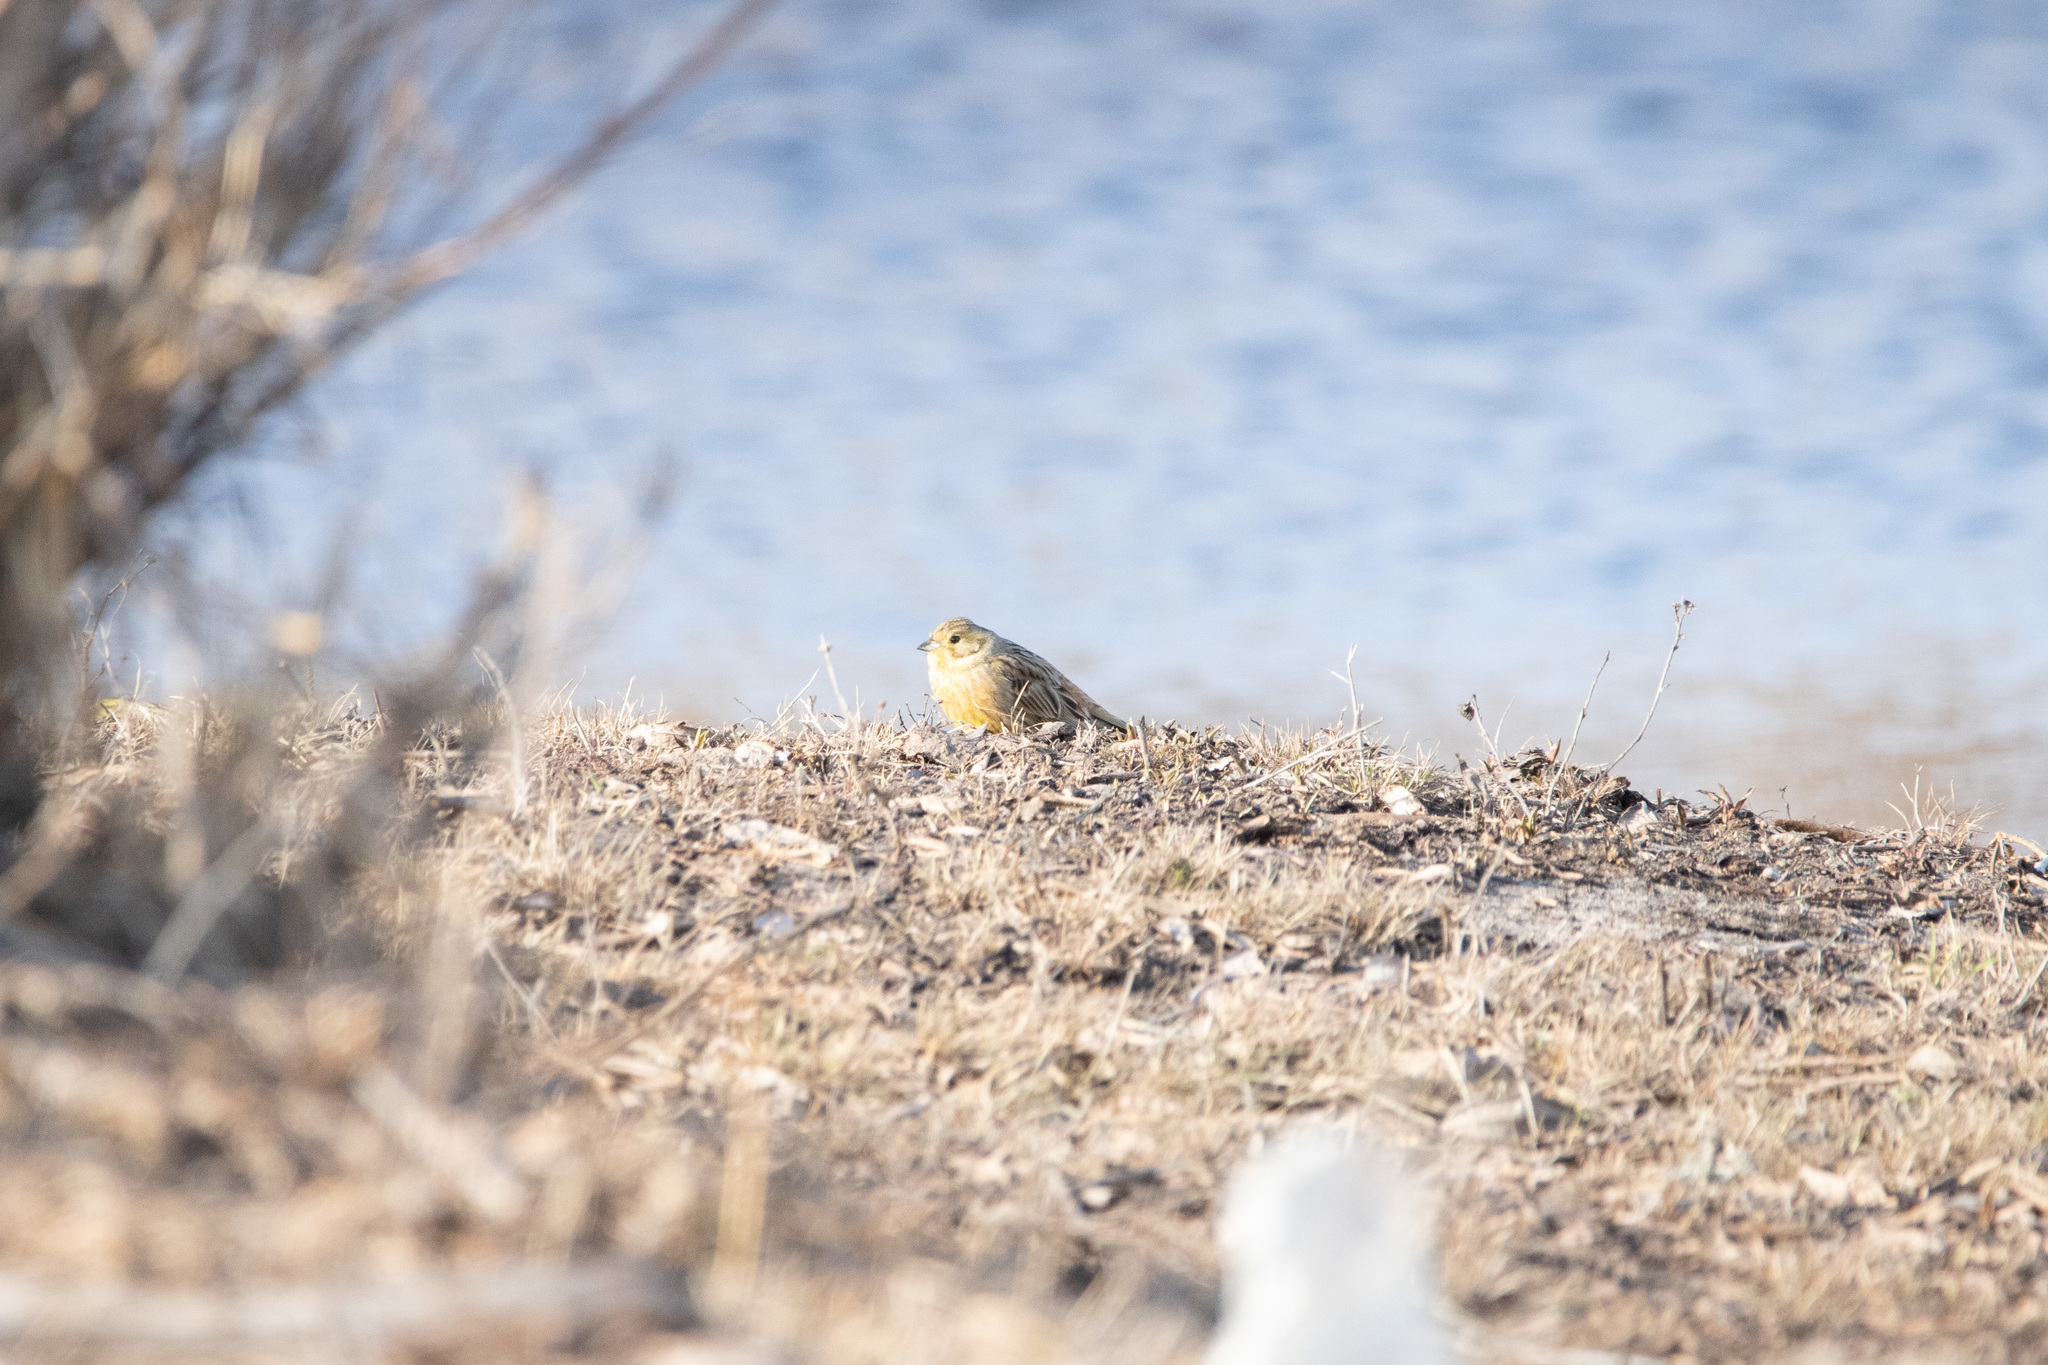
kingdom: Animalia
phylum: Chordata
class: Aves
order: Passeriformes
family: Emberizidae
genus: Emberiza
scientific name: Emberiza citrinella
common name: Yellowhammer
